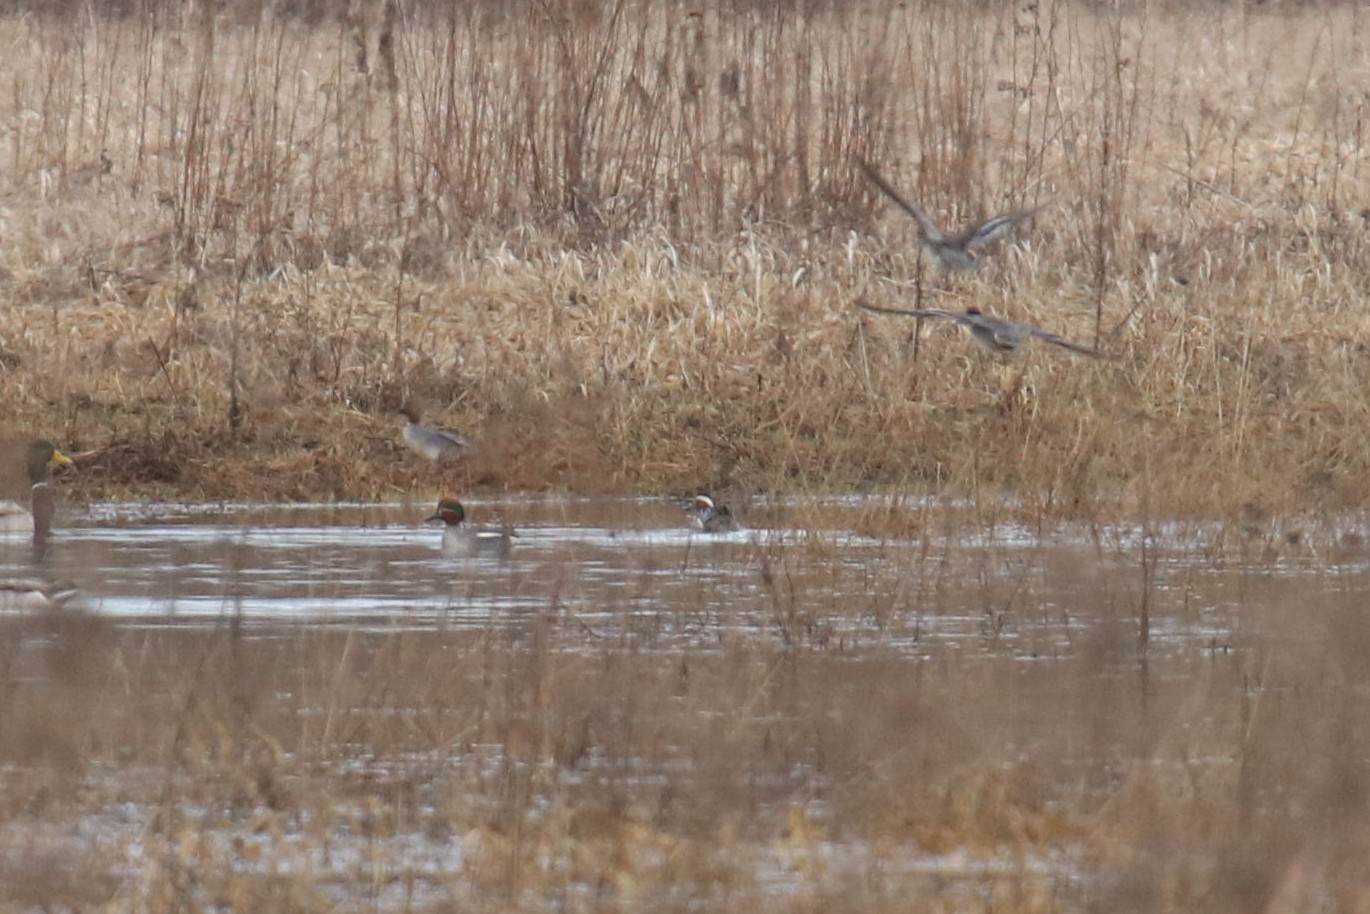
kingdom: Animalia
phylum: Chordata
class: Aves
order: Anseriformes
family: Anatidae
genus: Anas
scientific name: Anas crecca
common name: Eurasian teal
